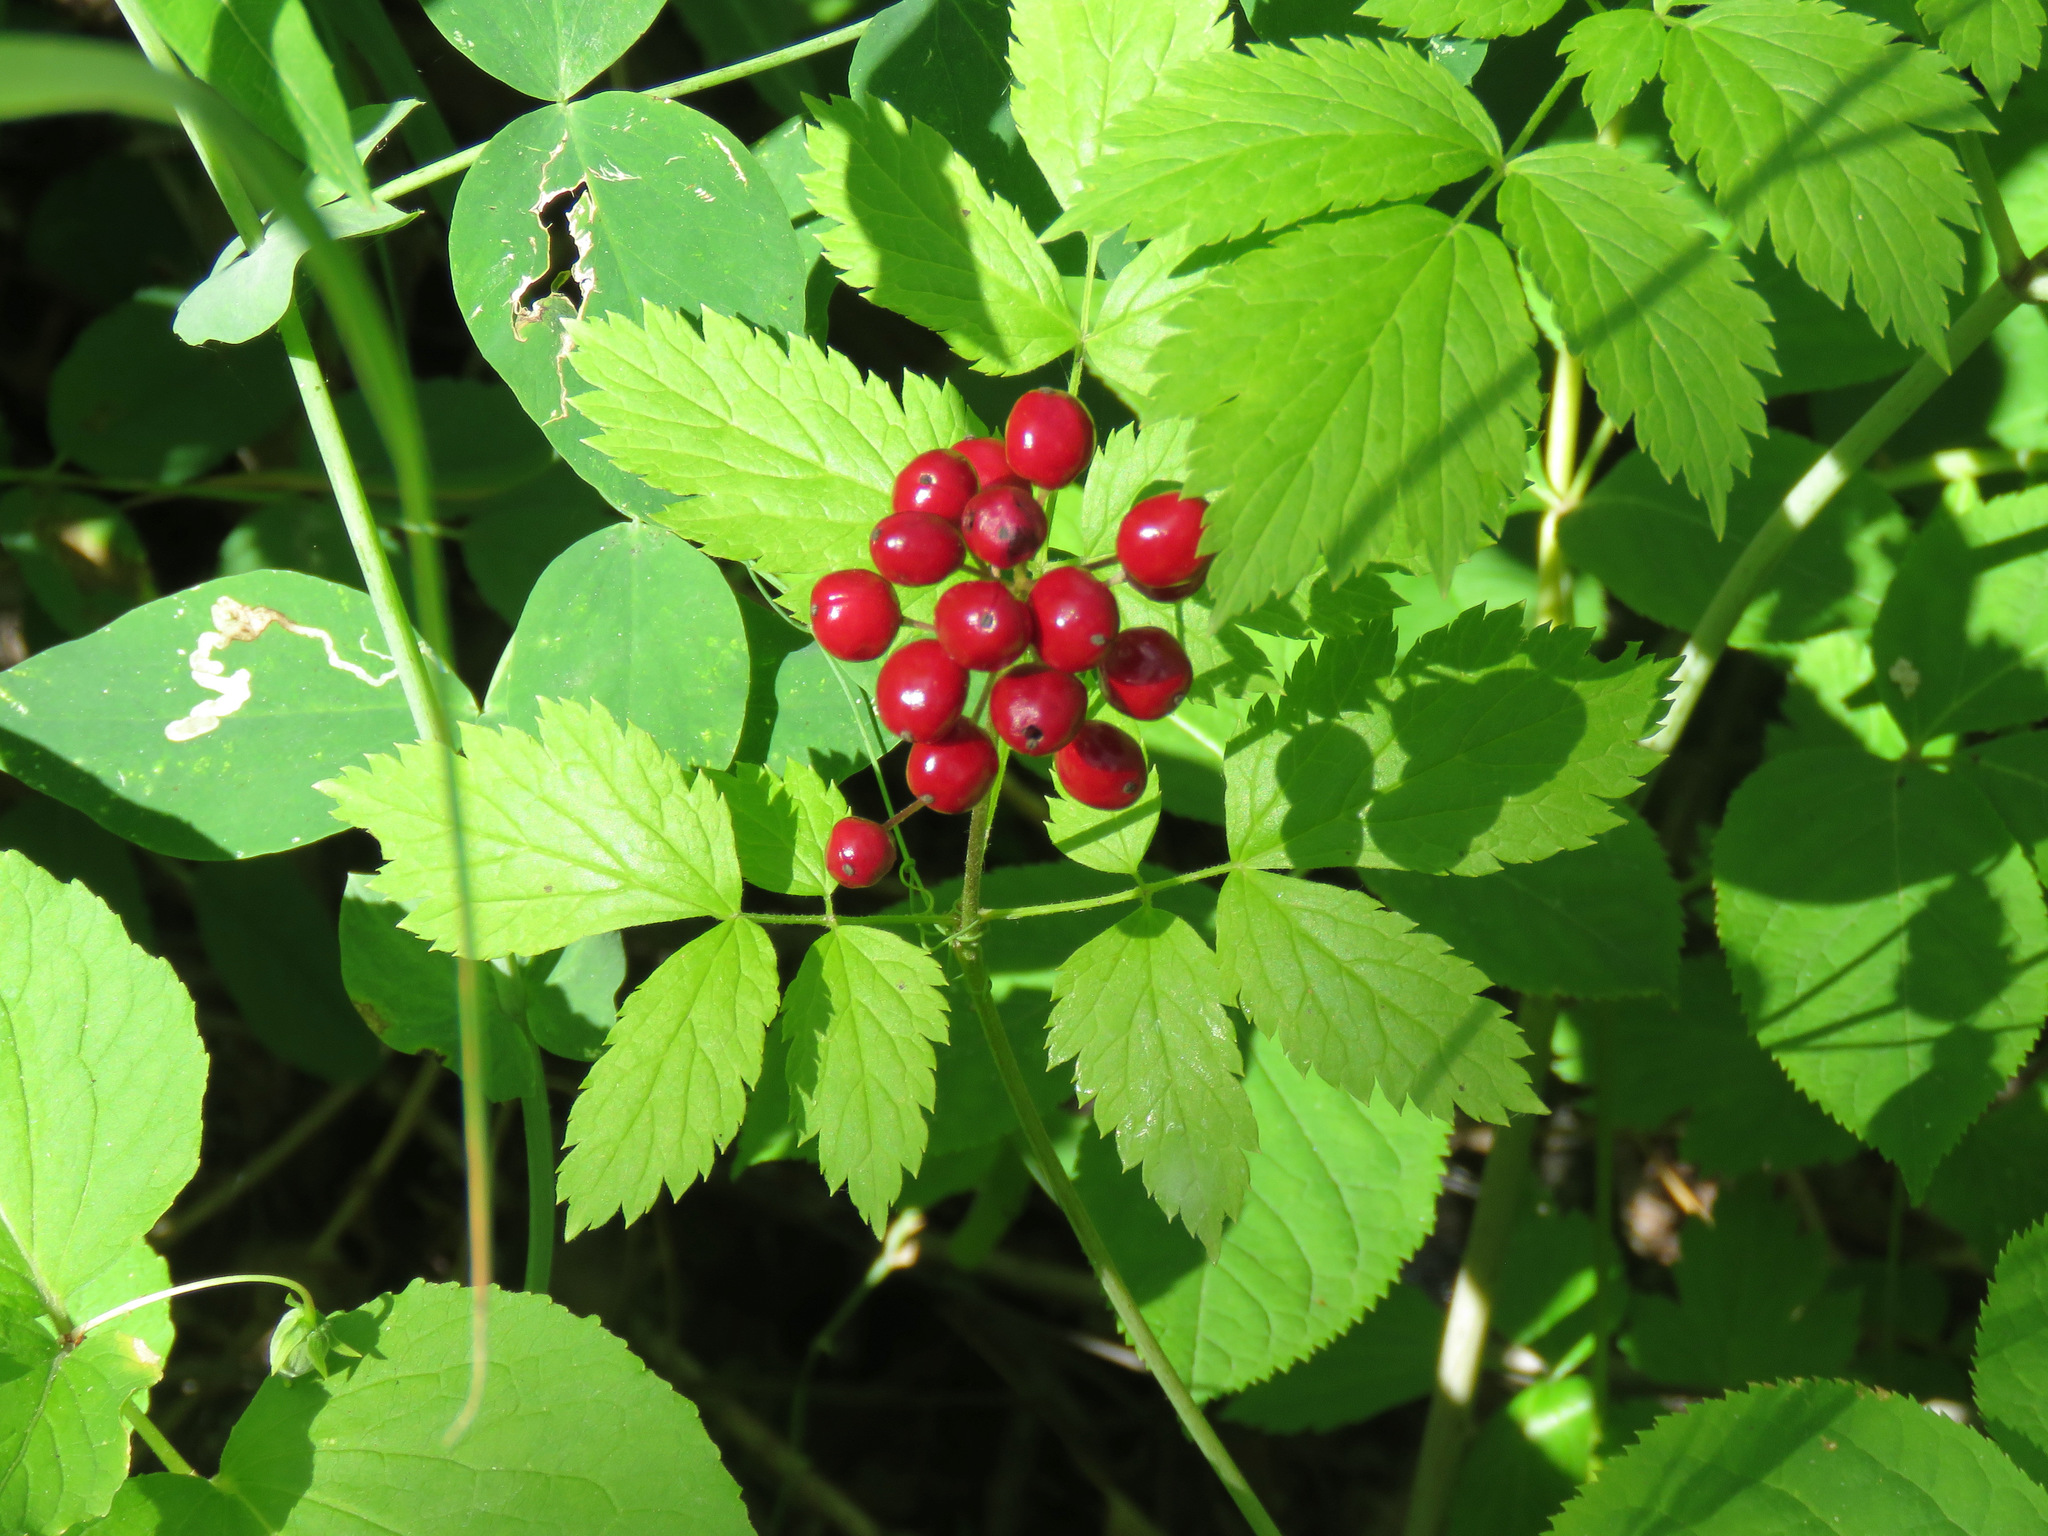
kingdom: Plantae
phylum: Tracheophyta
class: Magnoliopsida
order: Ranunculales
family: Ranunculaceae
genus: Actaea
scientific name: Actaea rubra
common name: Red baneberry
